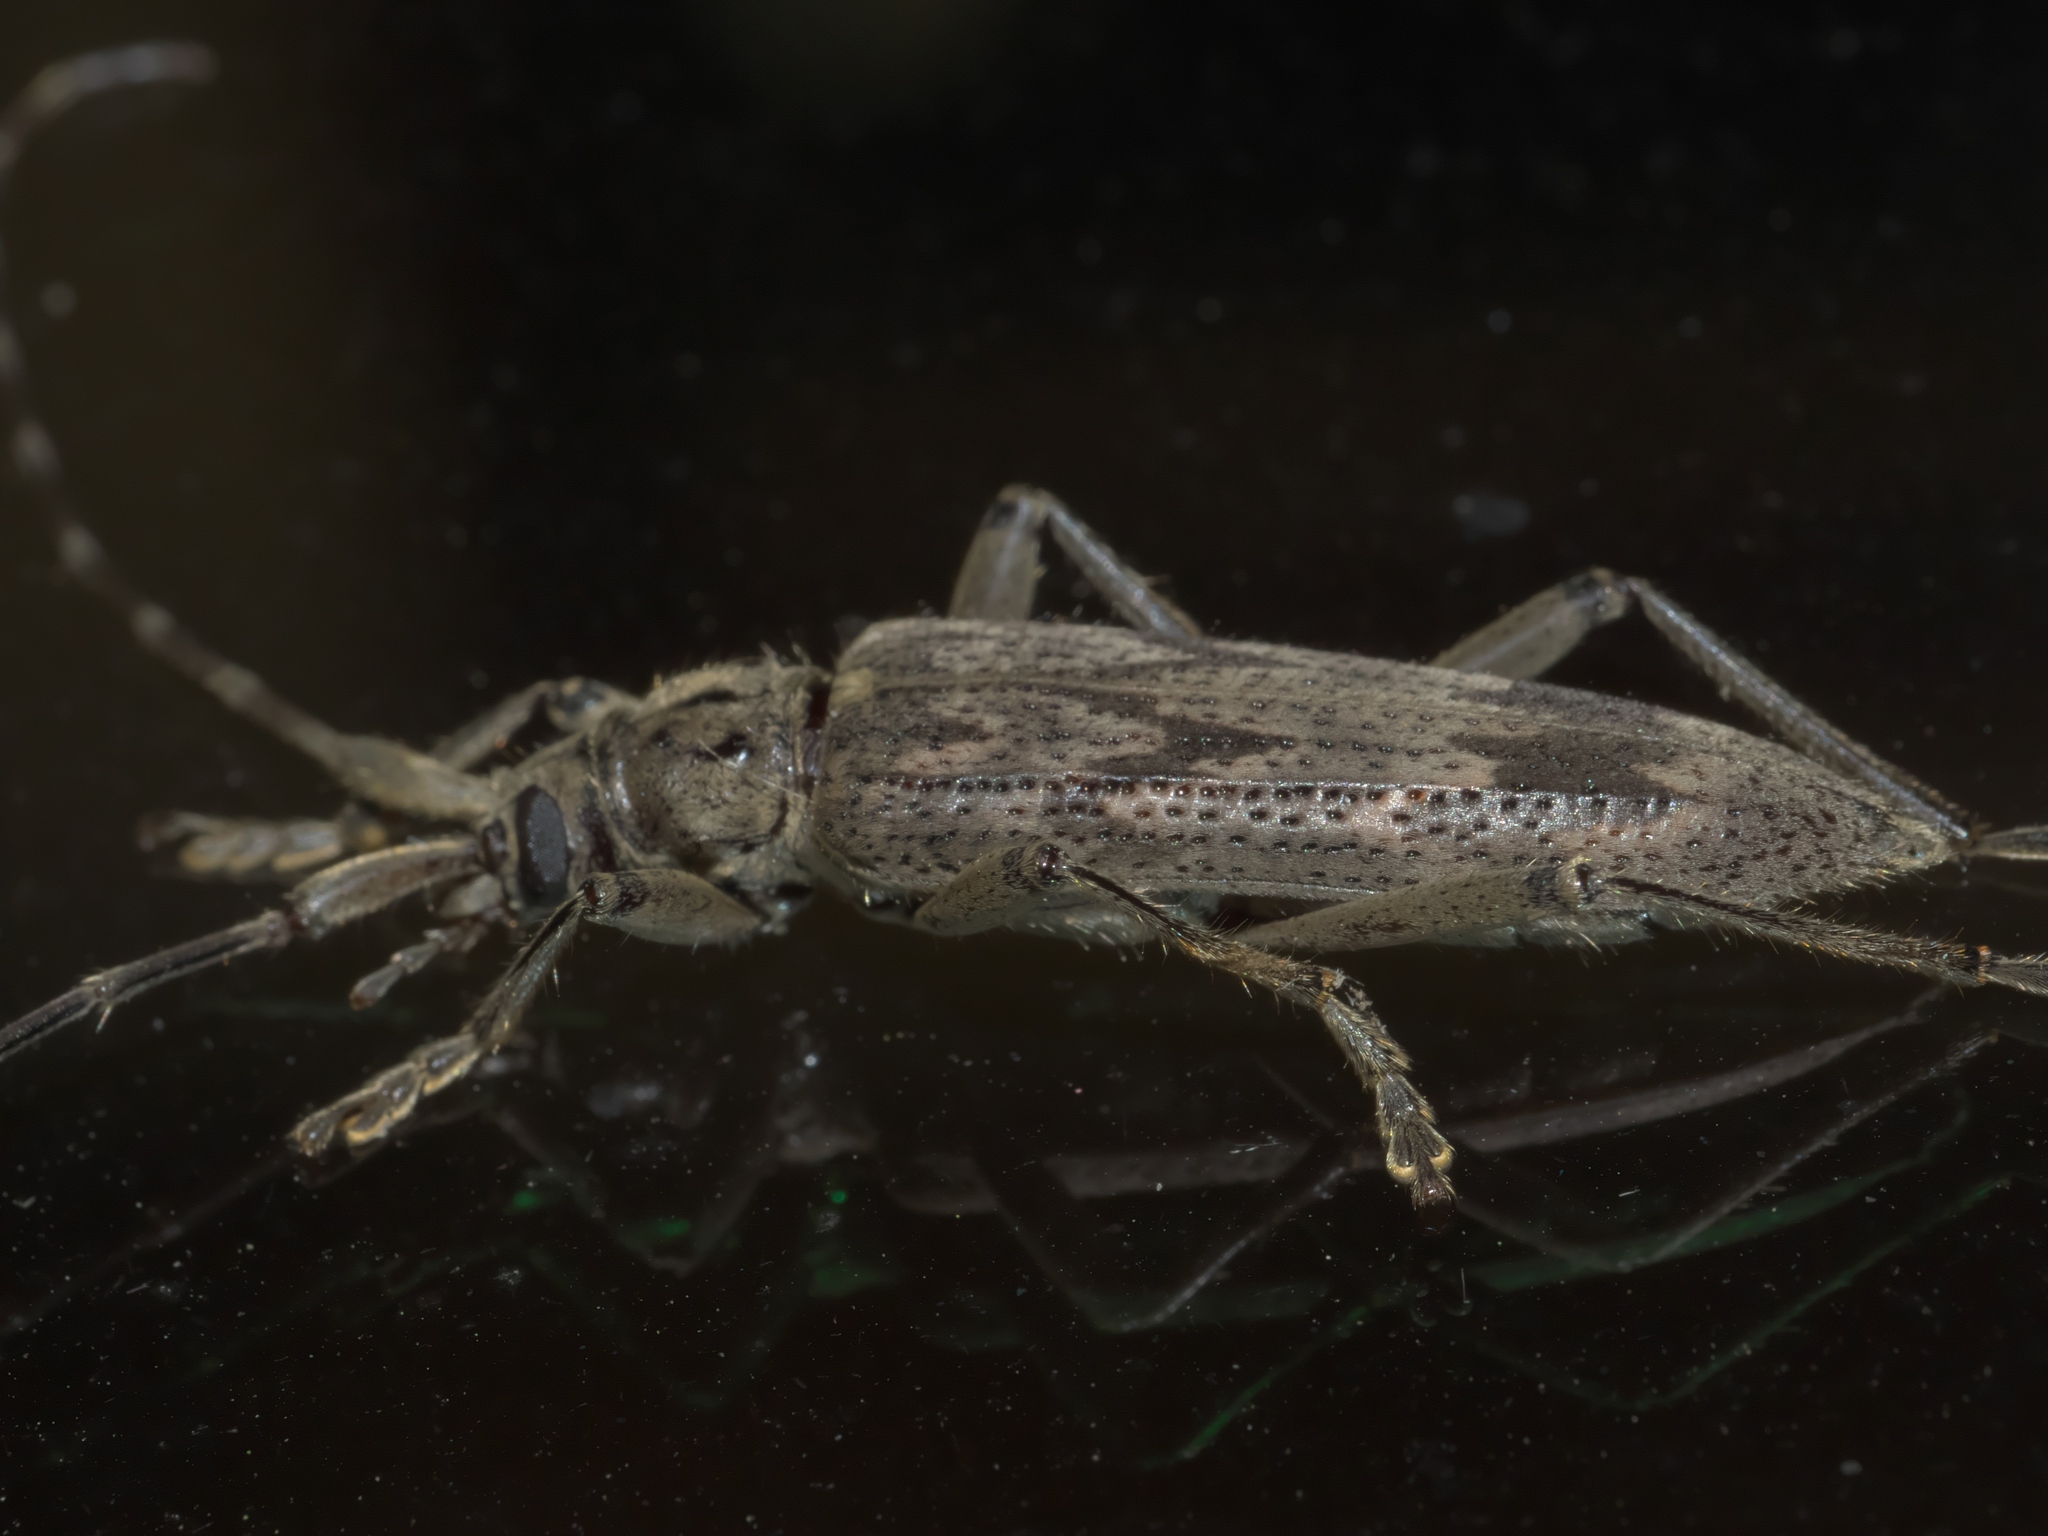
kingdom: Animalia
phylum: Arthropoda
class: Insecta
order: Coleoptera
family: Cerambycidae
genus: Elytrimitatrix
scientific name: Elytrimitatrix undata
